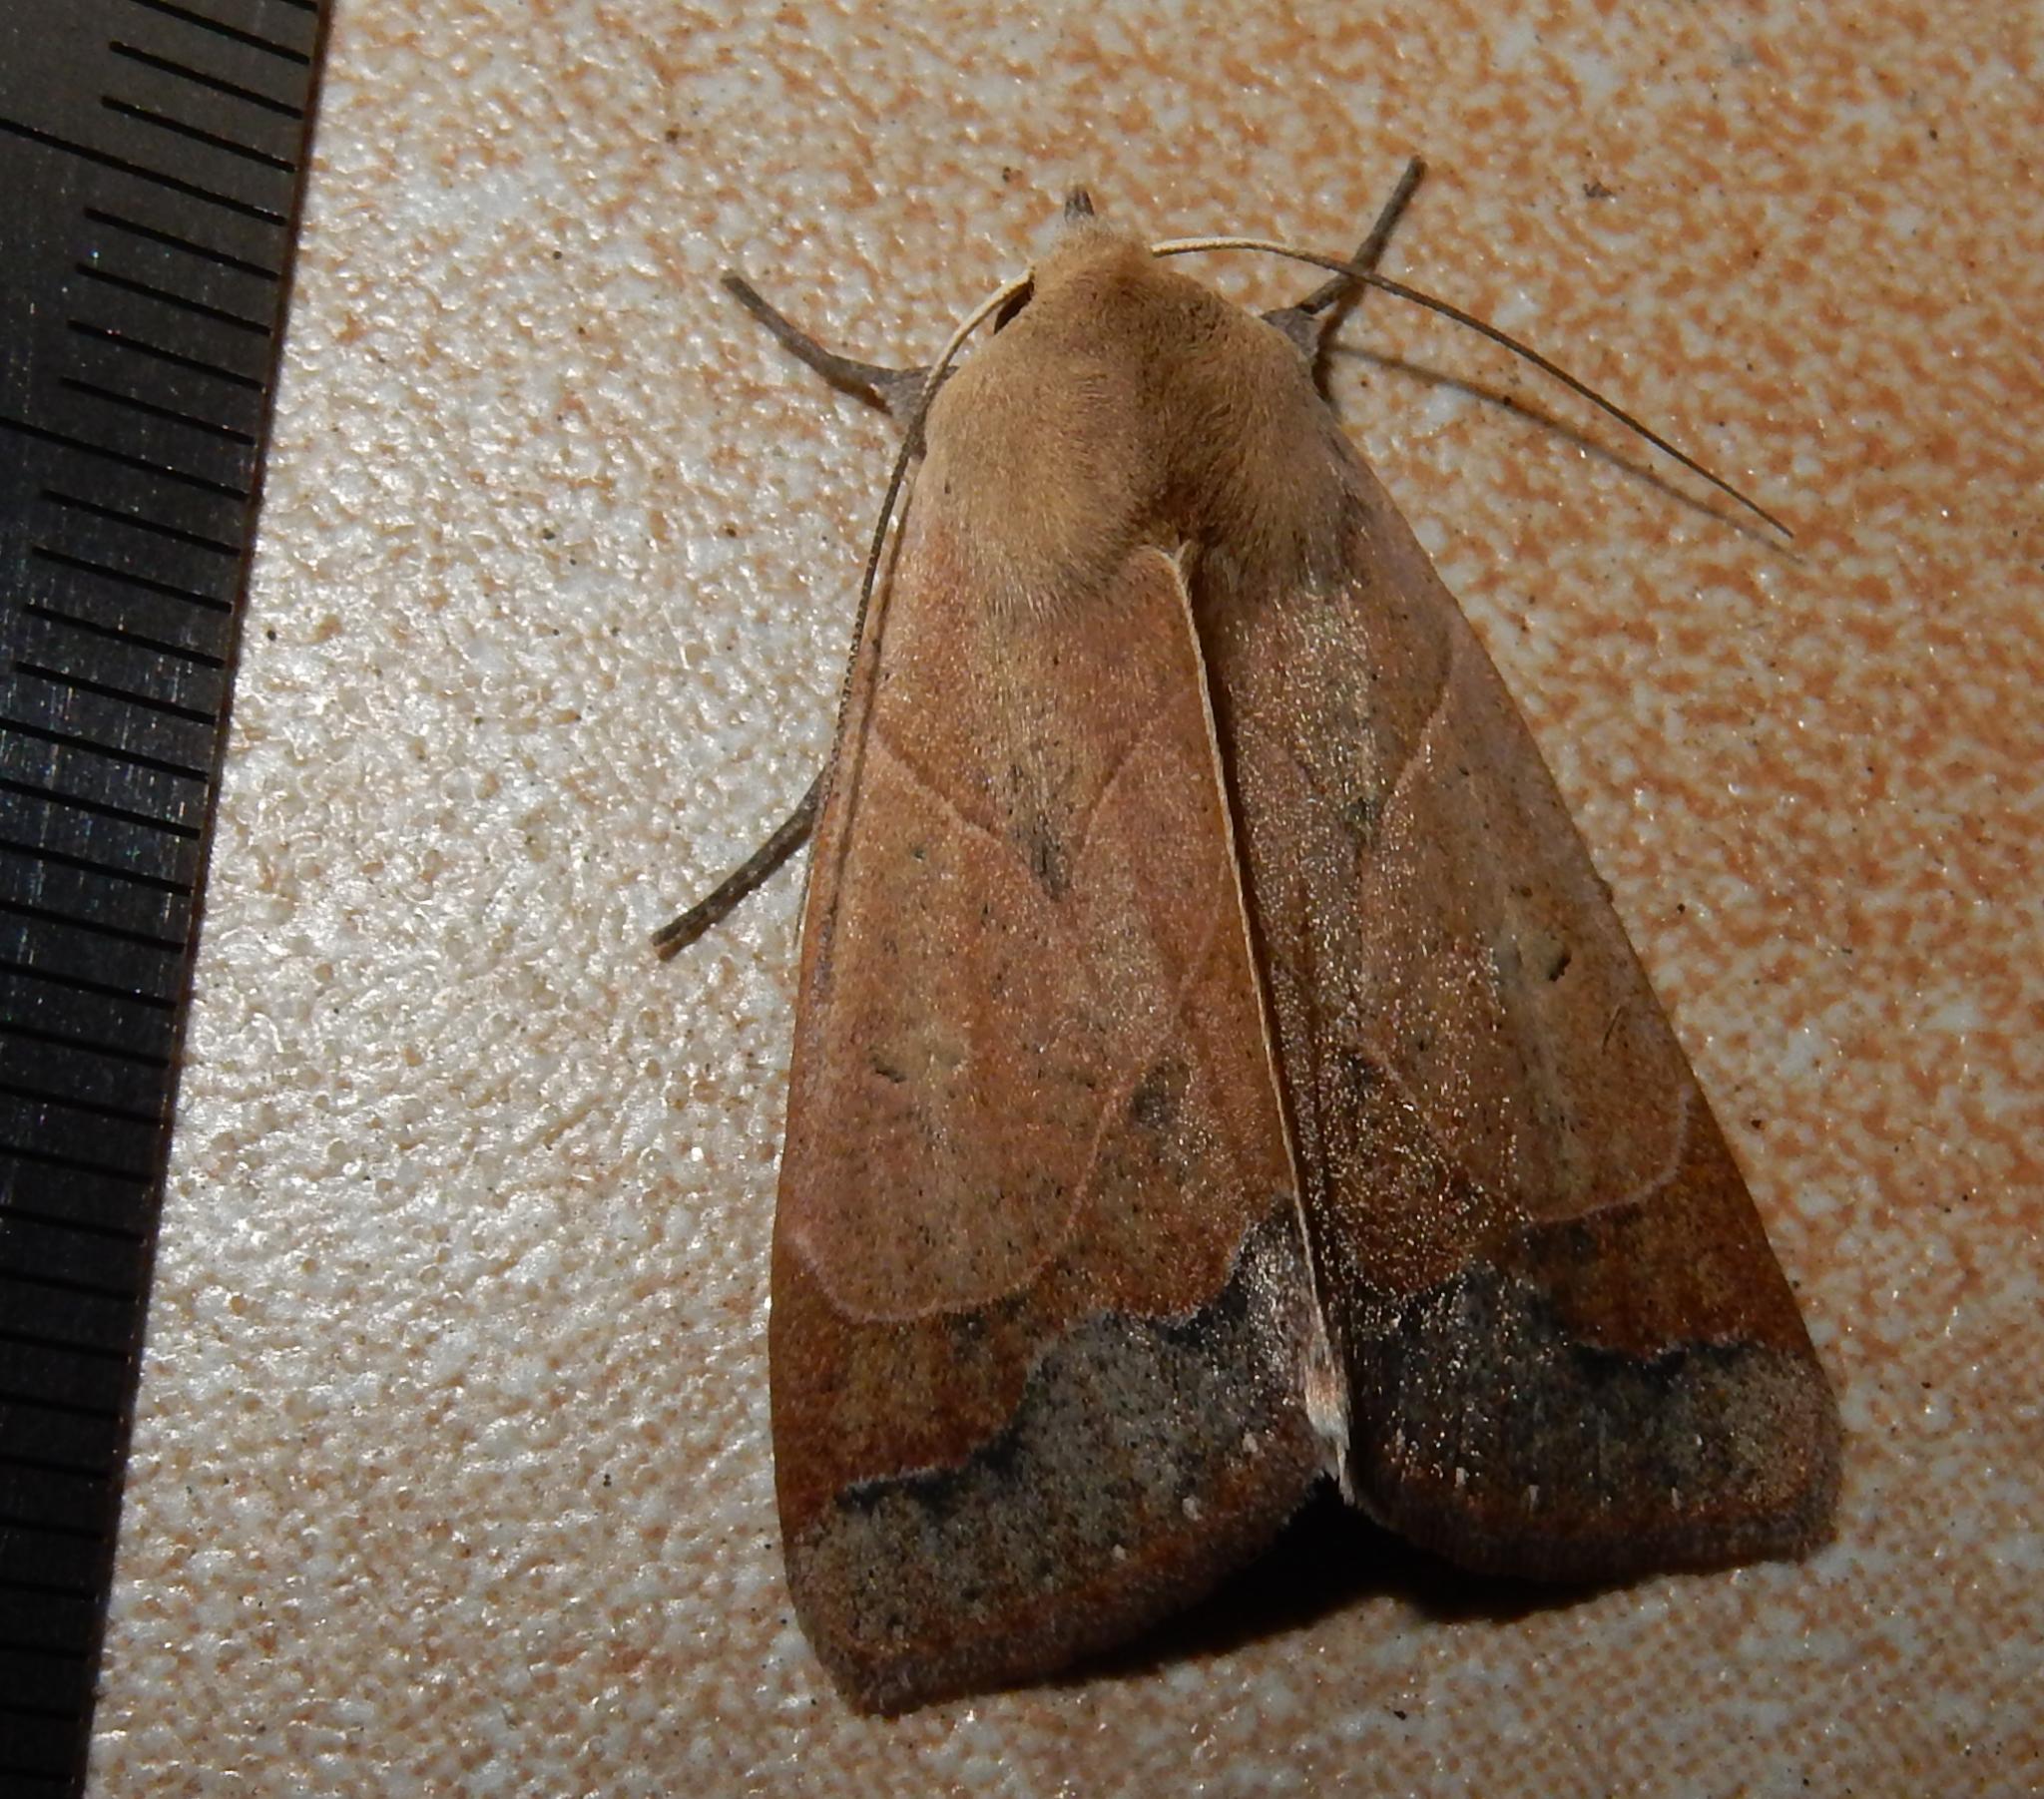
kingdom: Animalia
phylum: Arthropoda
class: Insecta
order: Lepidoptera
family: Erebidae
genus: Ophiusa
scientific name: Ophiusa selenaris
